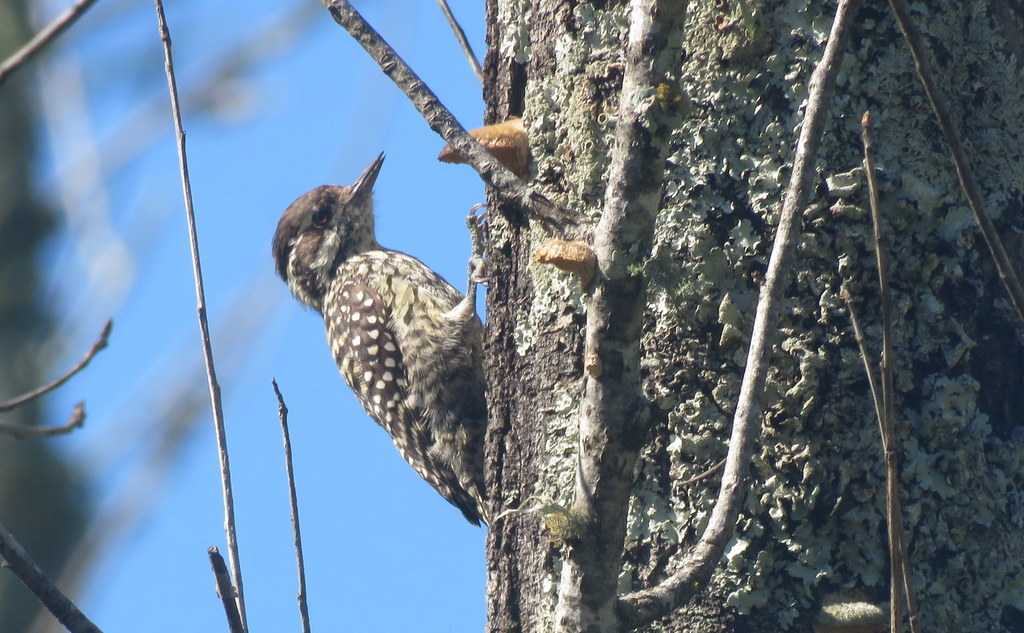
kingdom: Animalia
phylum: Chordata
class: Aves
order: Piciformes
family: Picidae
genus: Veniliornis
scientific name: Veniliornis mixtus
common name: Checkered woodpecker
